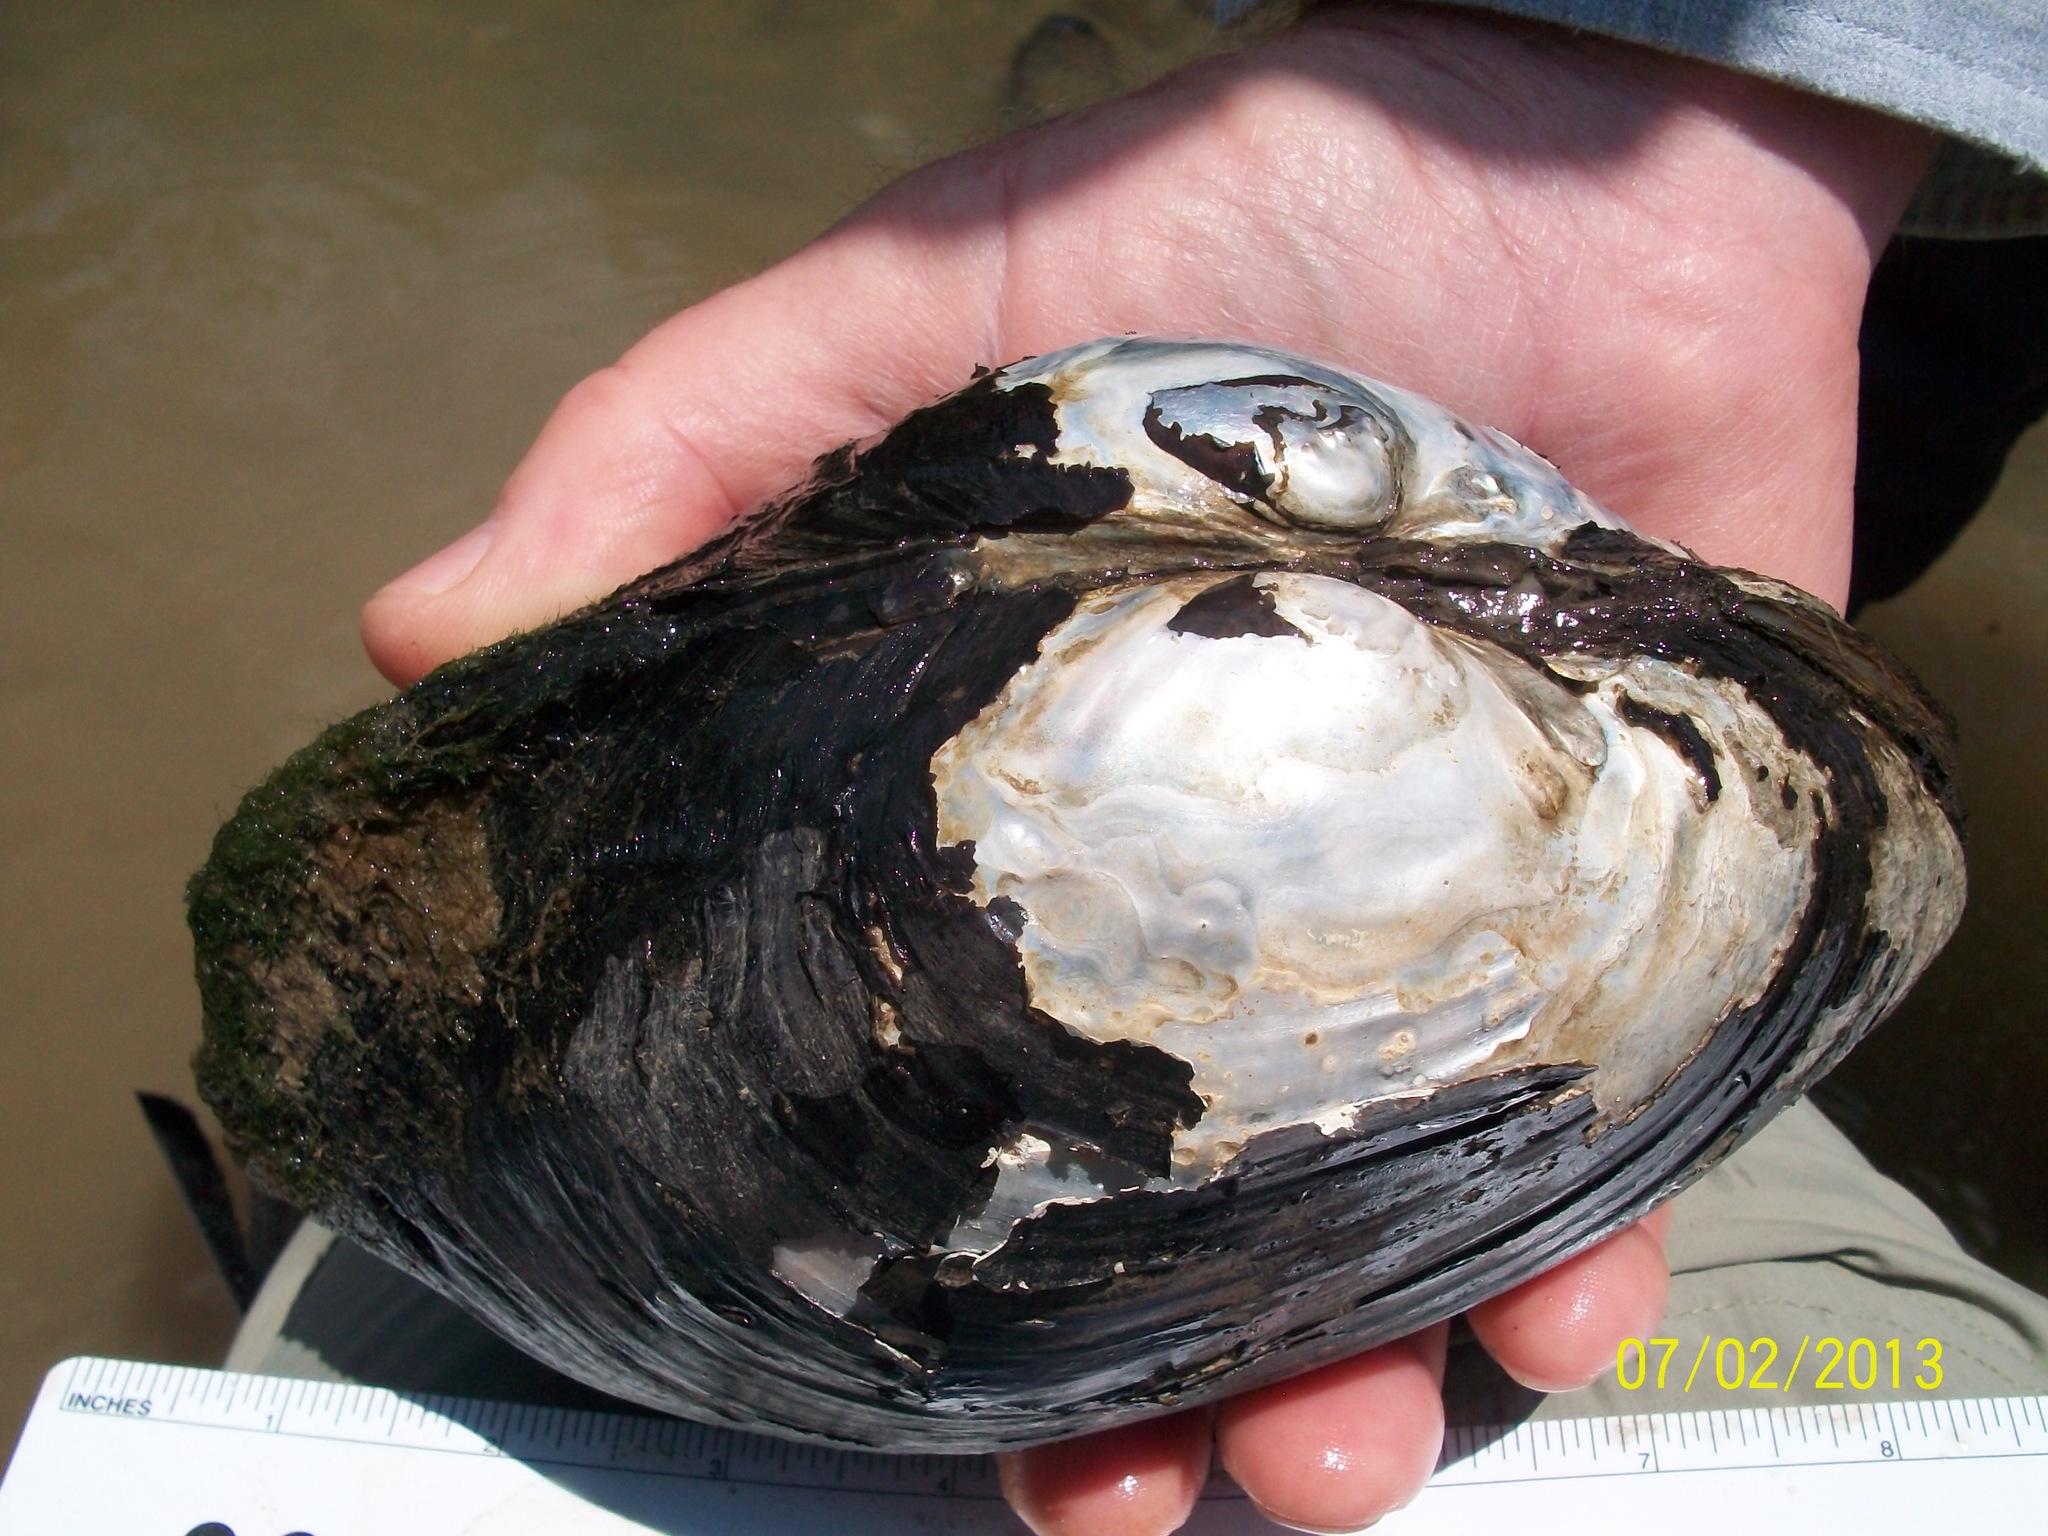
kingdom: Animalia
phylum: Mollusca
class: Bivalvia
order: Unionida
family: Unionidae
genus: Potamilus
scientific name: Potamilus purpuratus
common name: Bleufer
